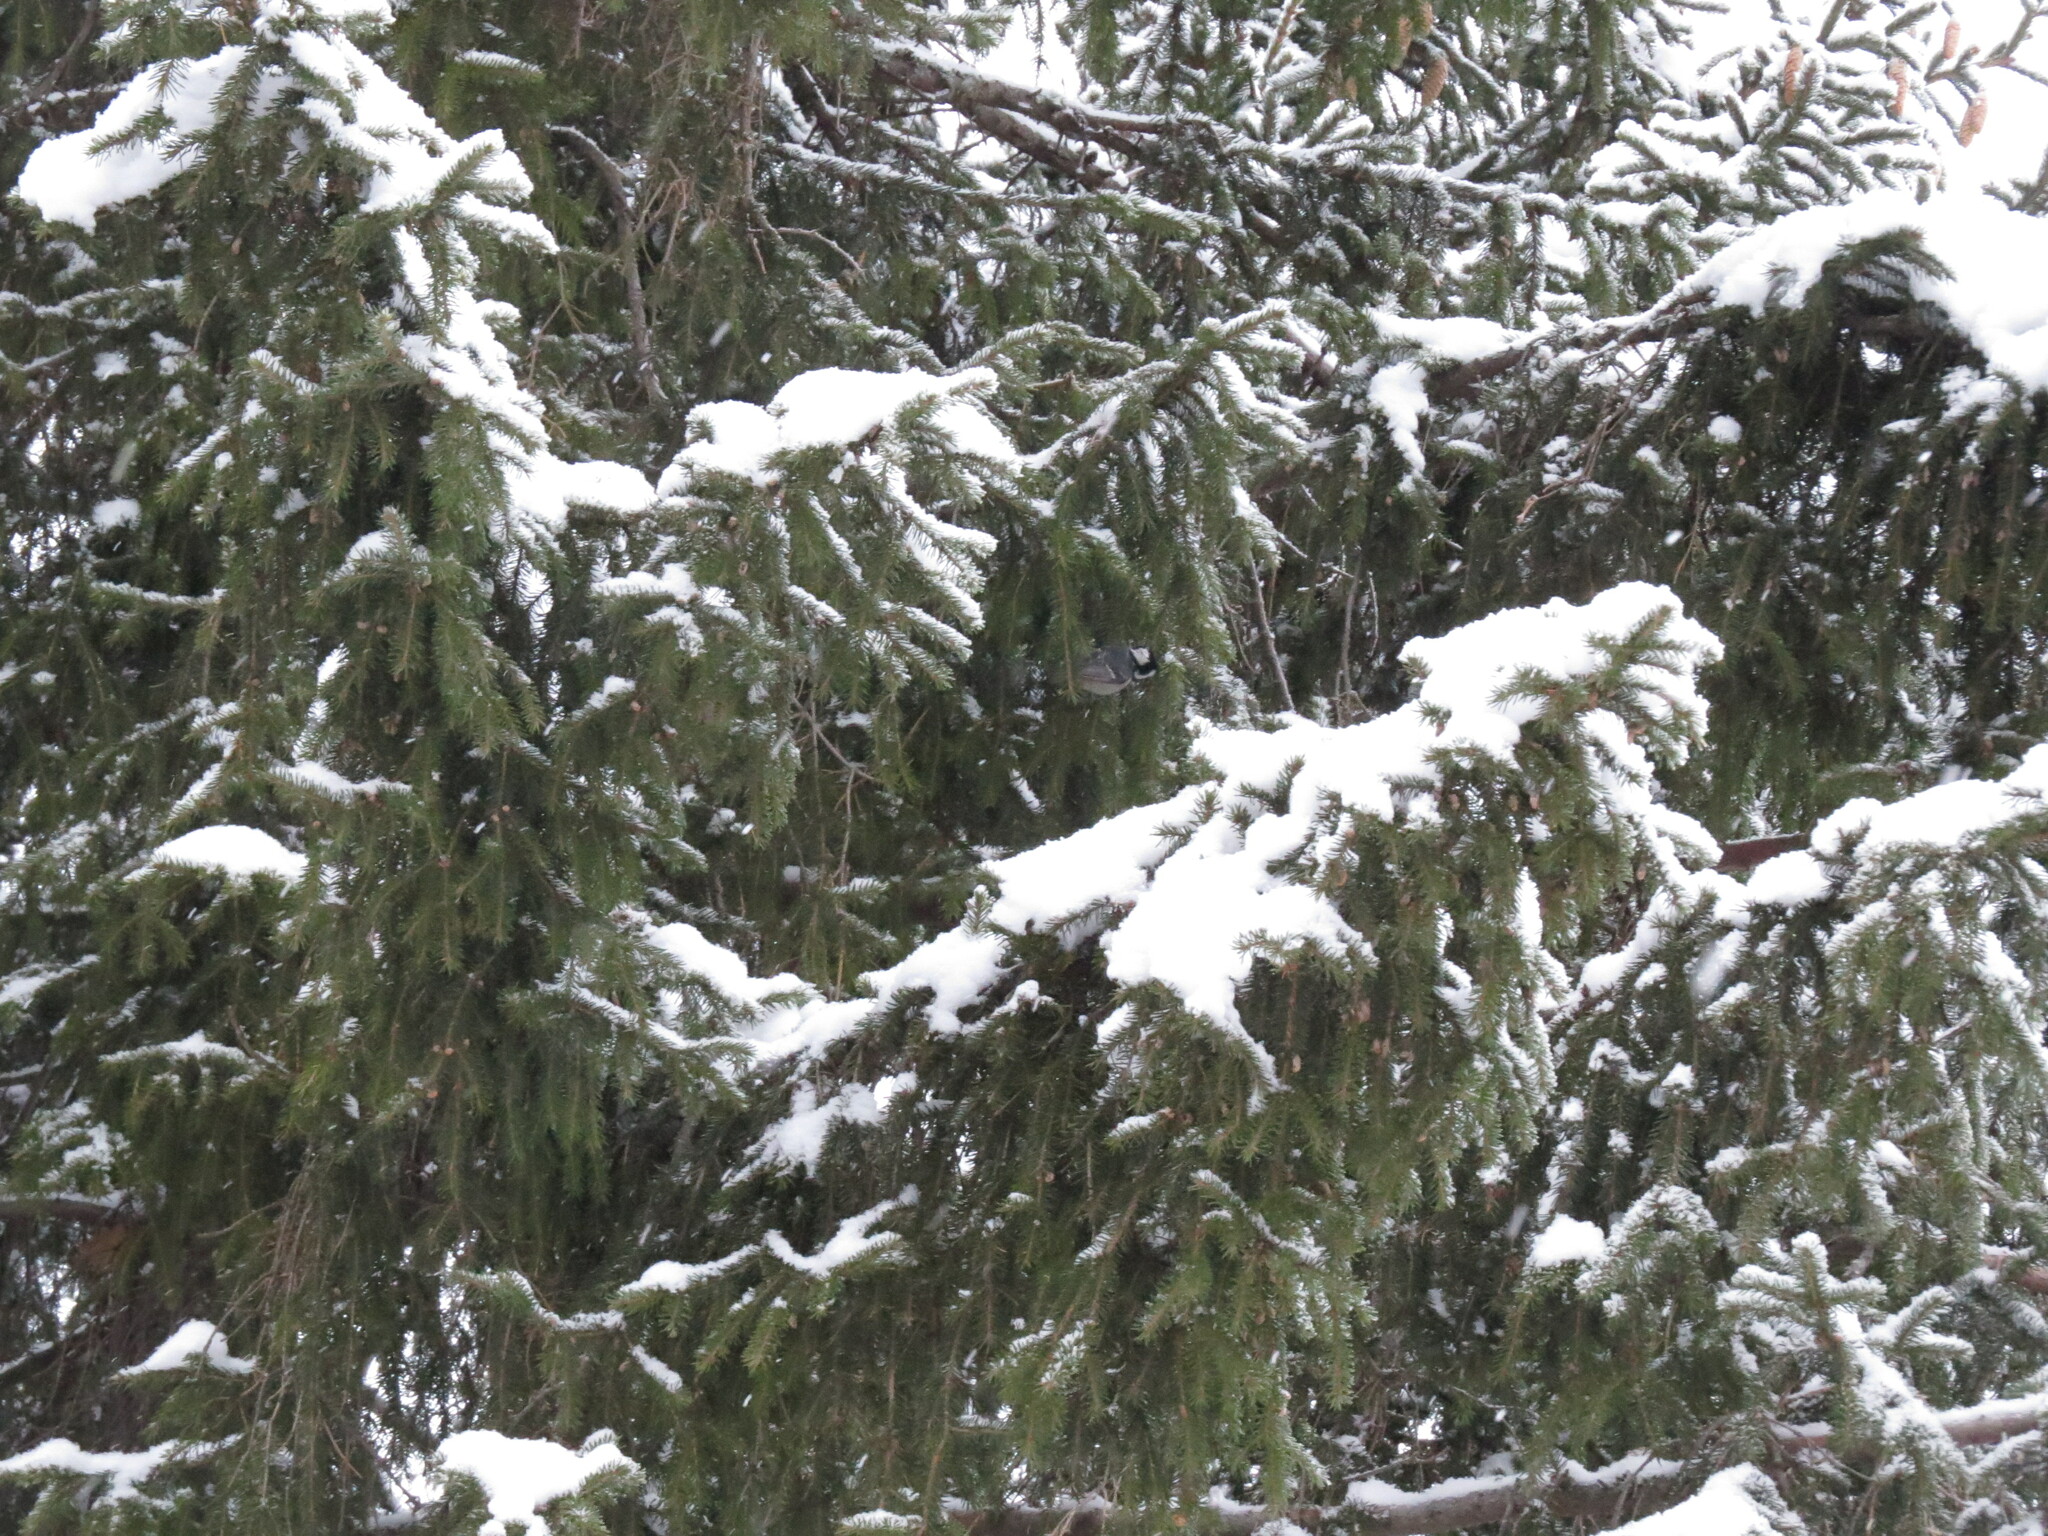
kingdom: Animalia
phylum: Chordata
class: Aves
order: Passeriformes
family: Paridae
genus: Periparus
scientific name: Periparus ater
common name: Coal tit
